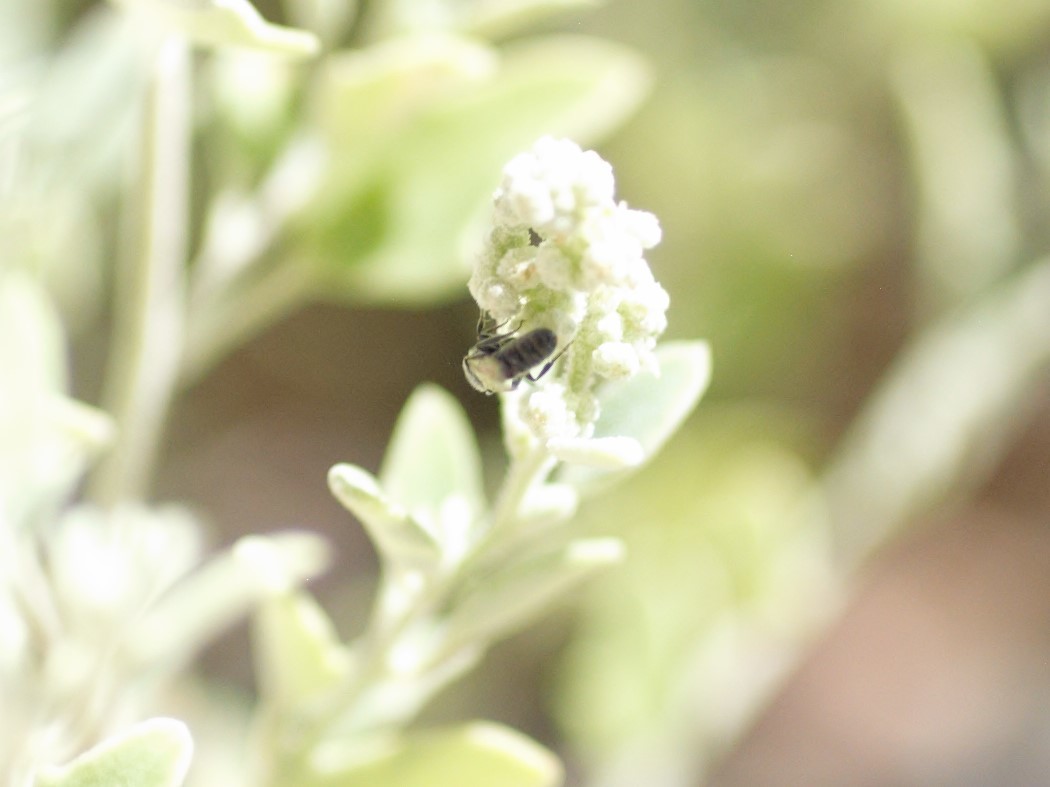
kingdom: Animalia
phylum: Arthropoda
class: Insecta
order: Hymenoptera
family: Halictidae
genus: Dialictus
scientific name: Dialictus
